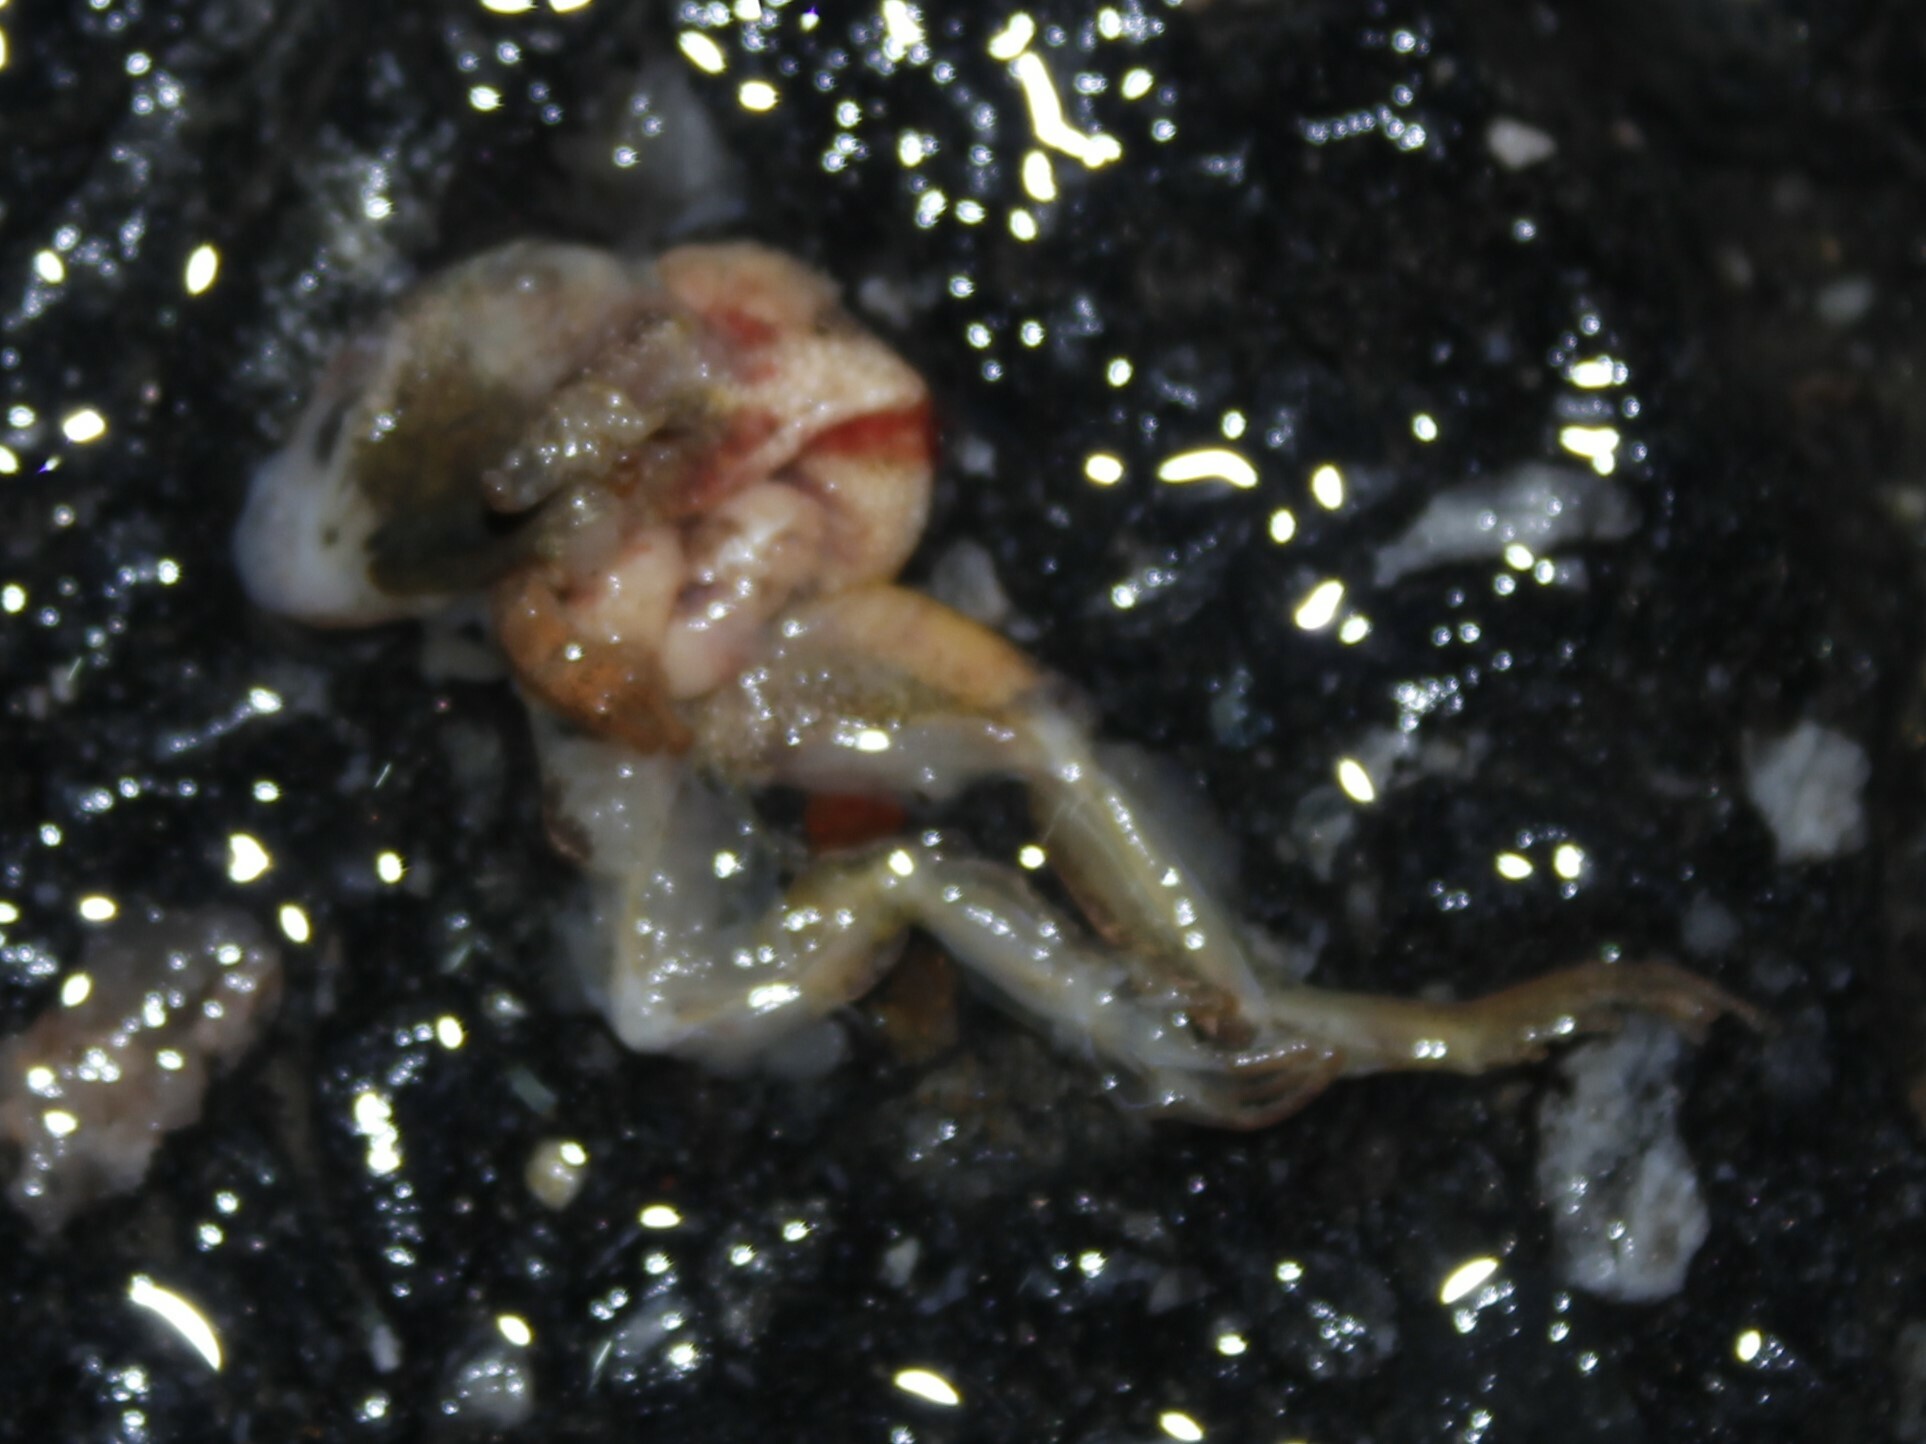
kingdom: Animalia
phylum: Chordata
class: Amphibia
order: Anura
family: Hylidae
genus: Pseudacris
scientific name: Pseudacris crucifer
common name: Spring peeper
